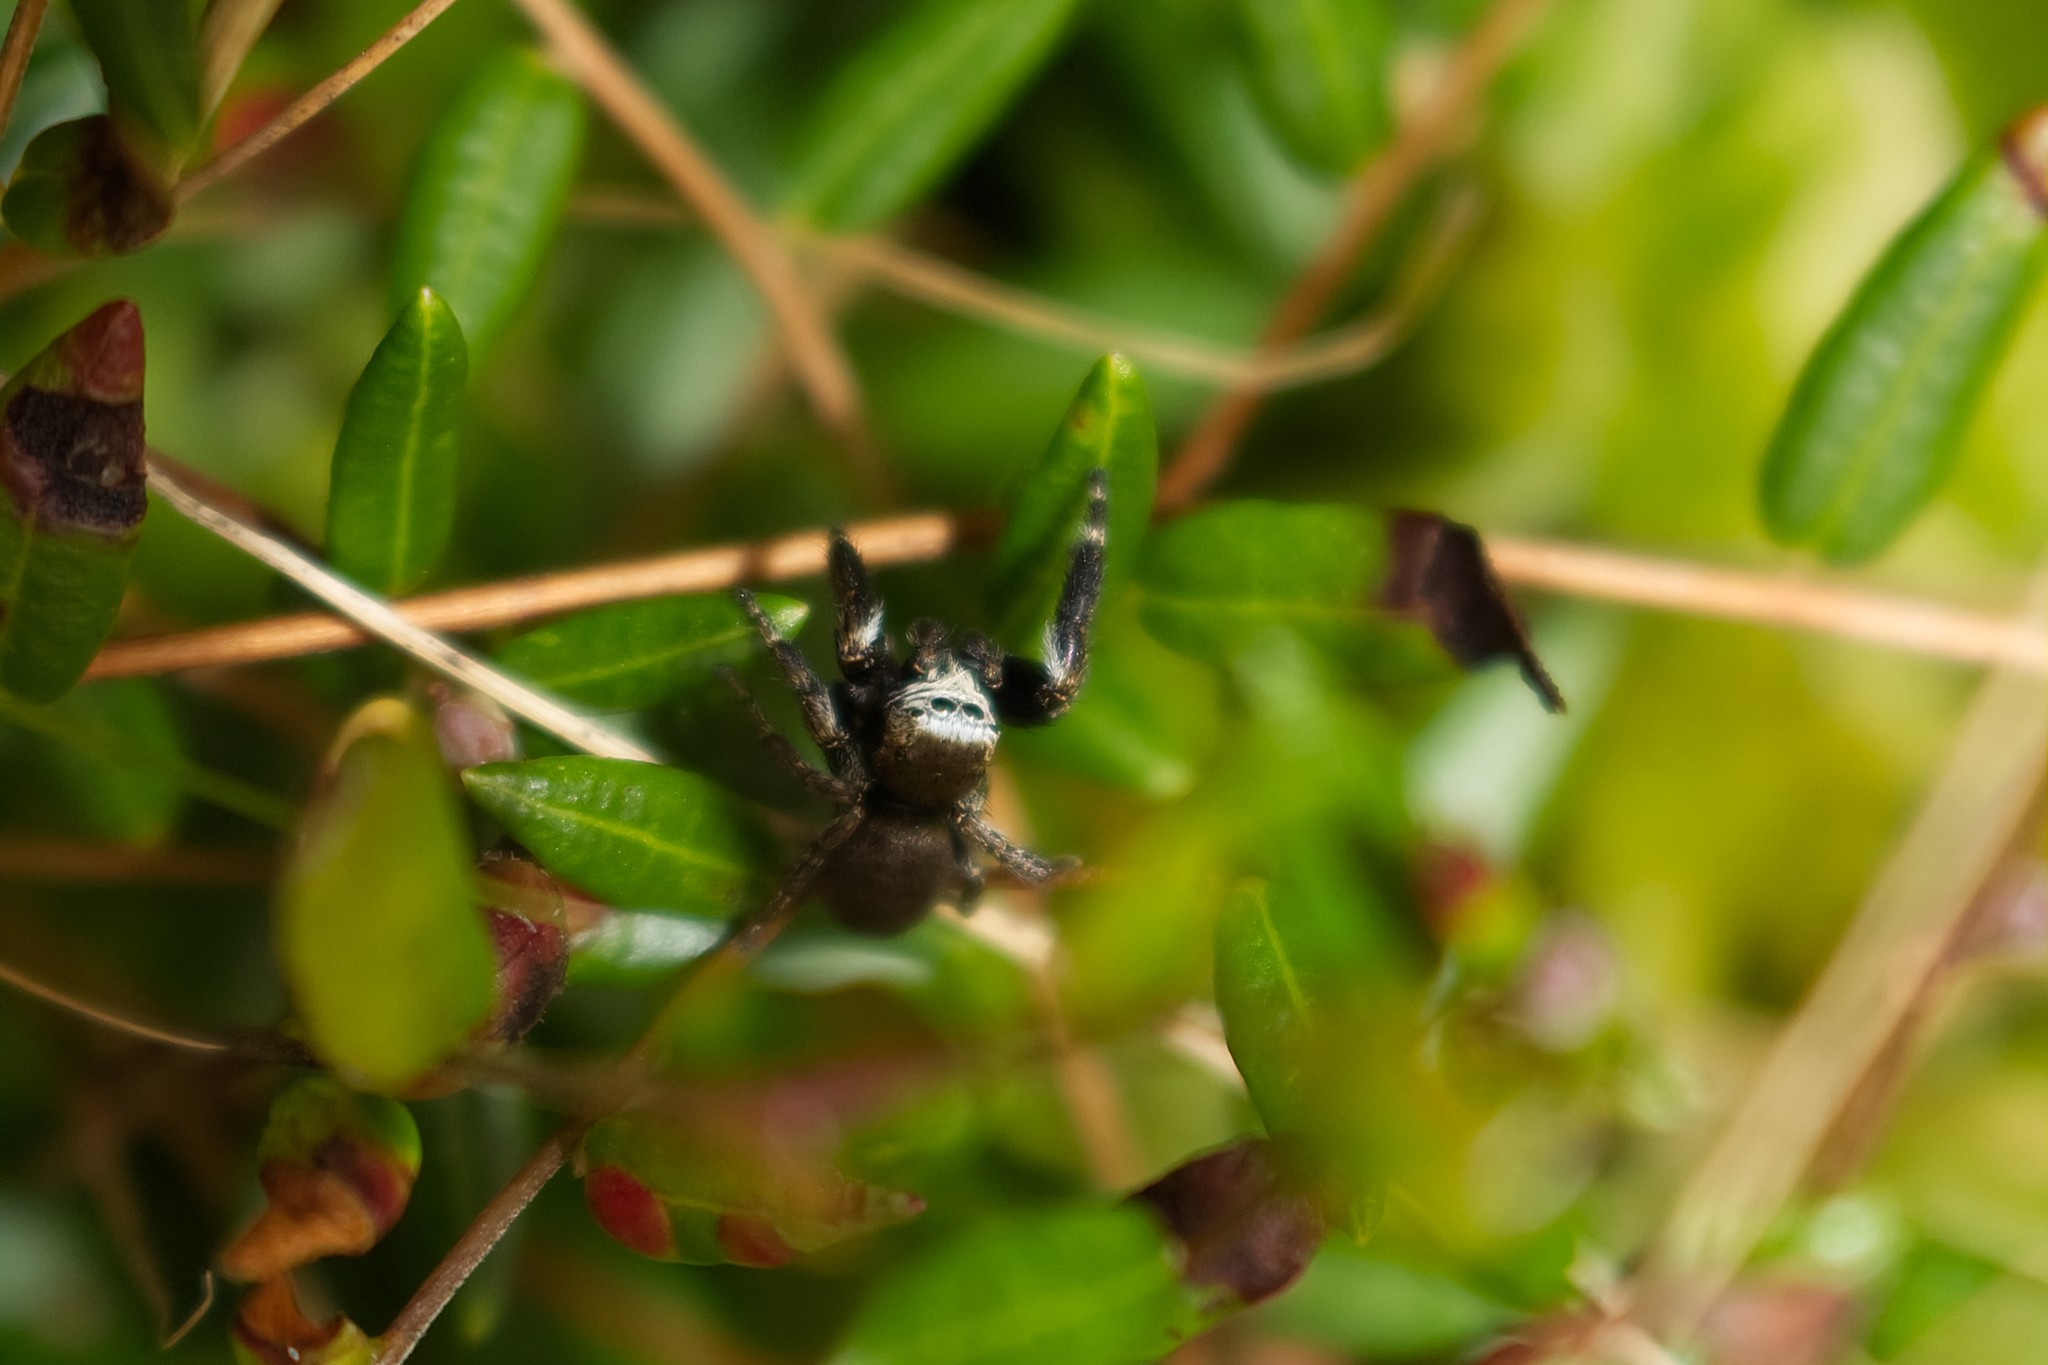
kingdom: Animalia
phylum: Arthropoda
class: Arachnida
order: Araneae
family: Salticidae
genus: Evarcha
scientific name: Evarcha arcuata
